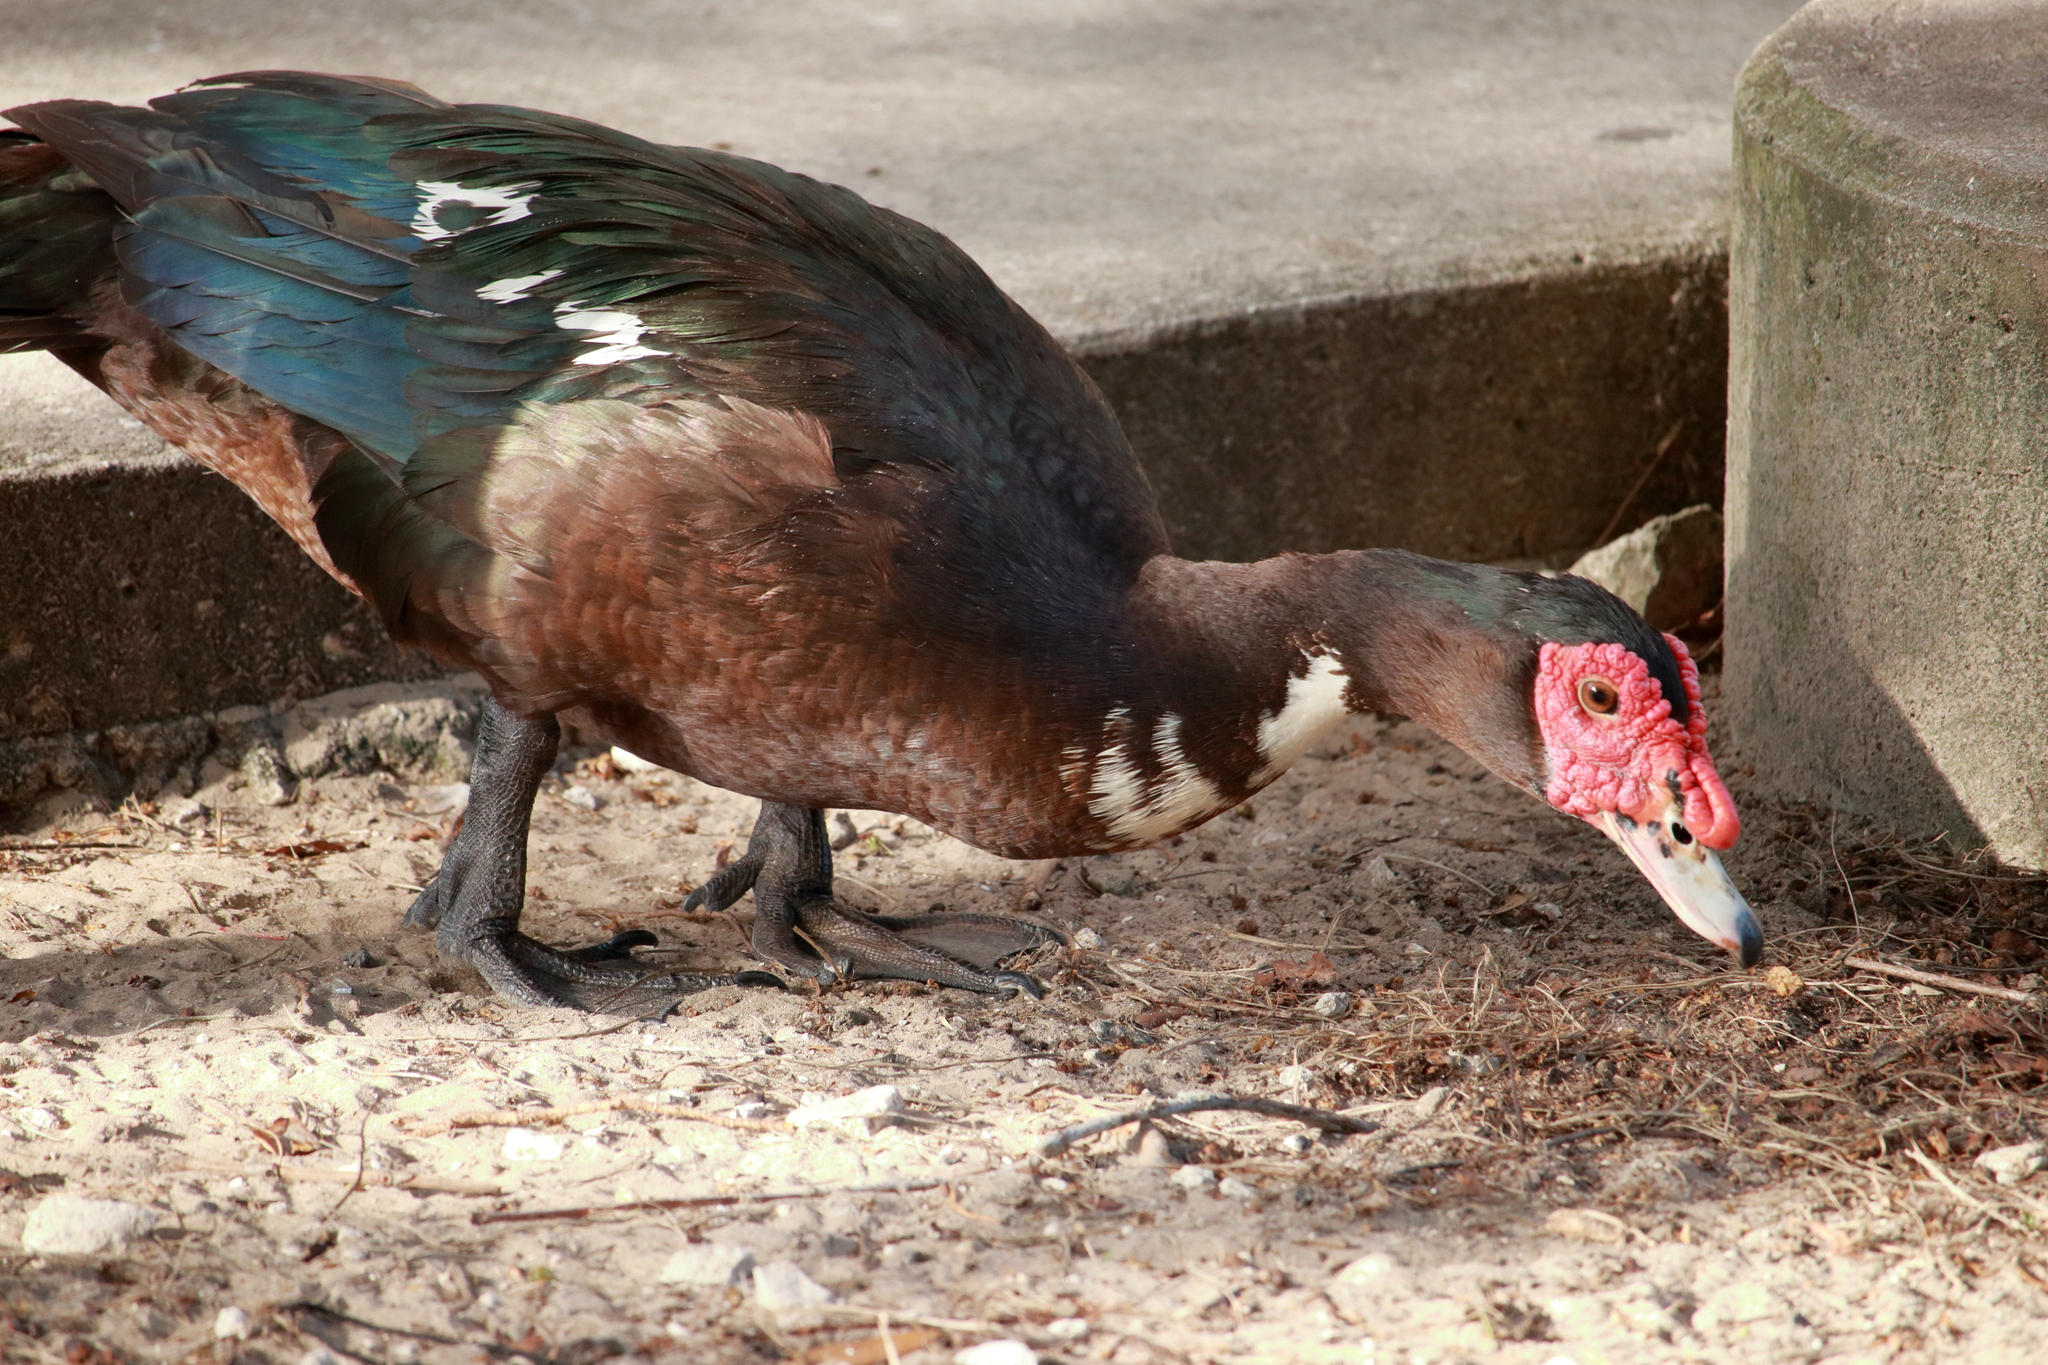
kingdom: Animalia
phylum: Chordata
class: Aves
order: Anseriformes
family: Anatidae
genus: Cairina
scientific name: Cairina moschata
